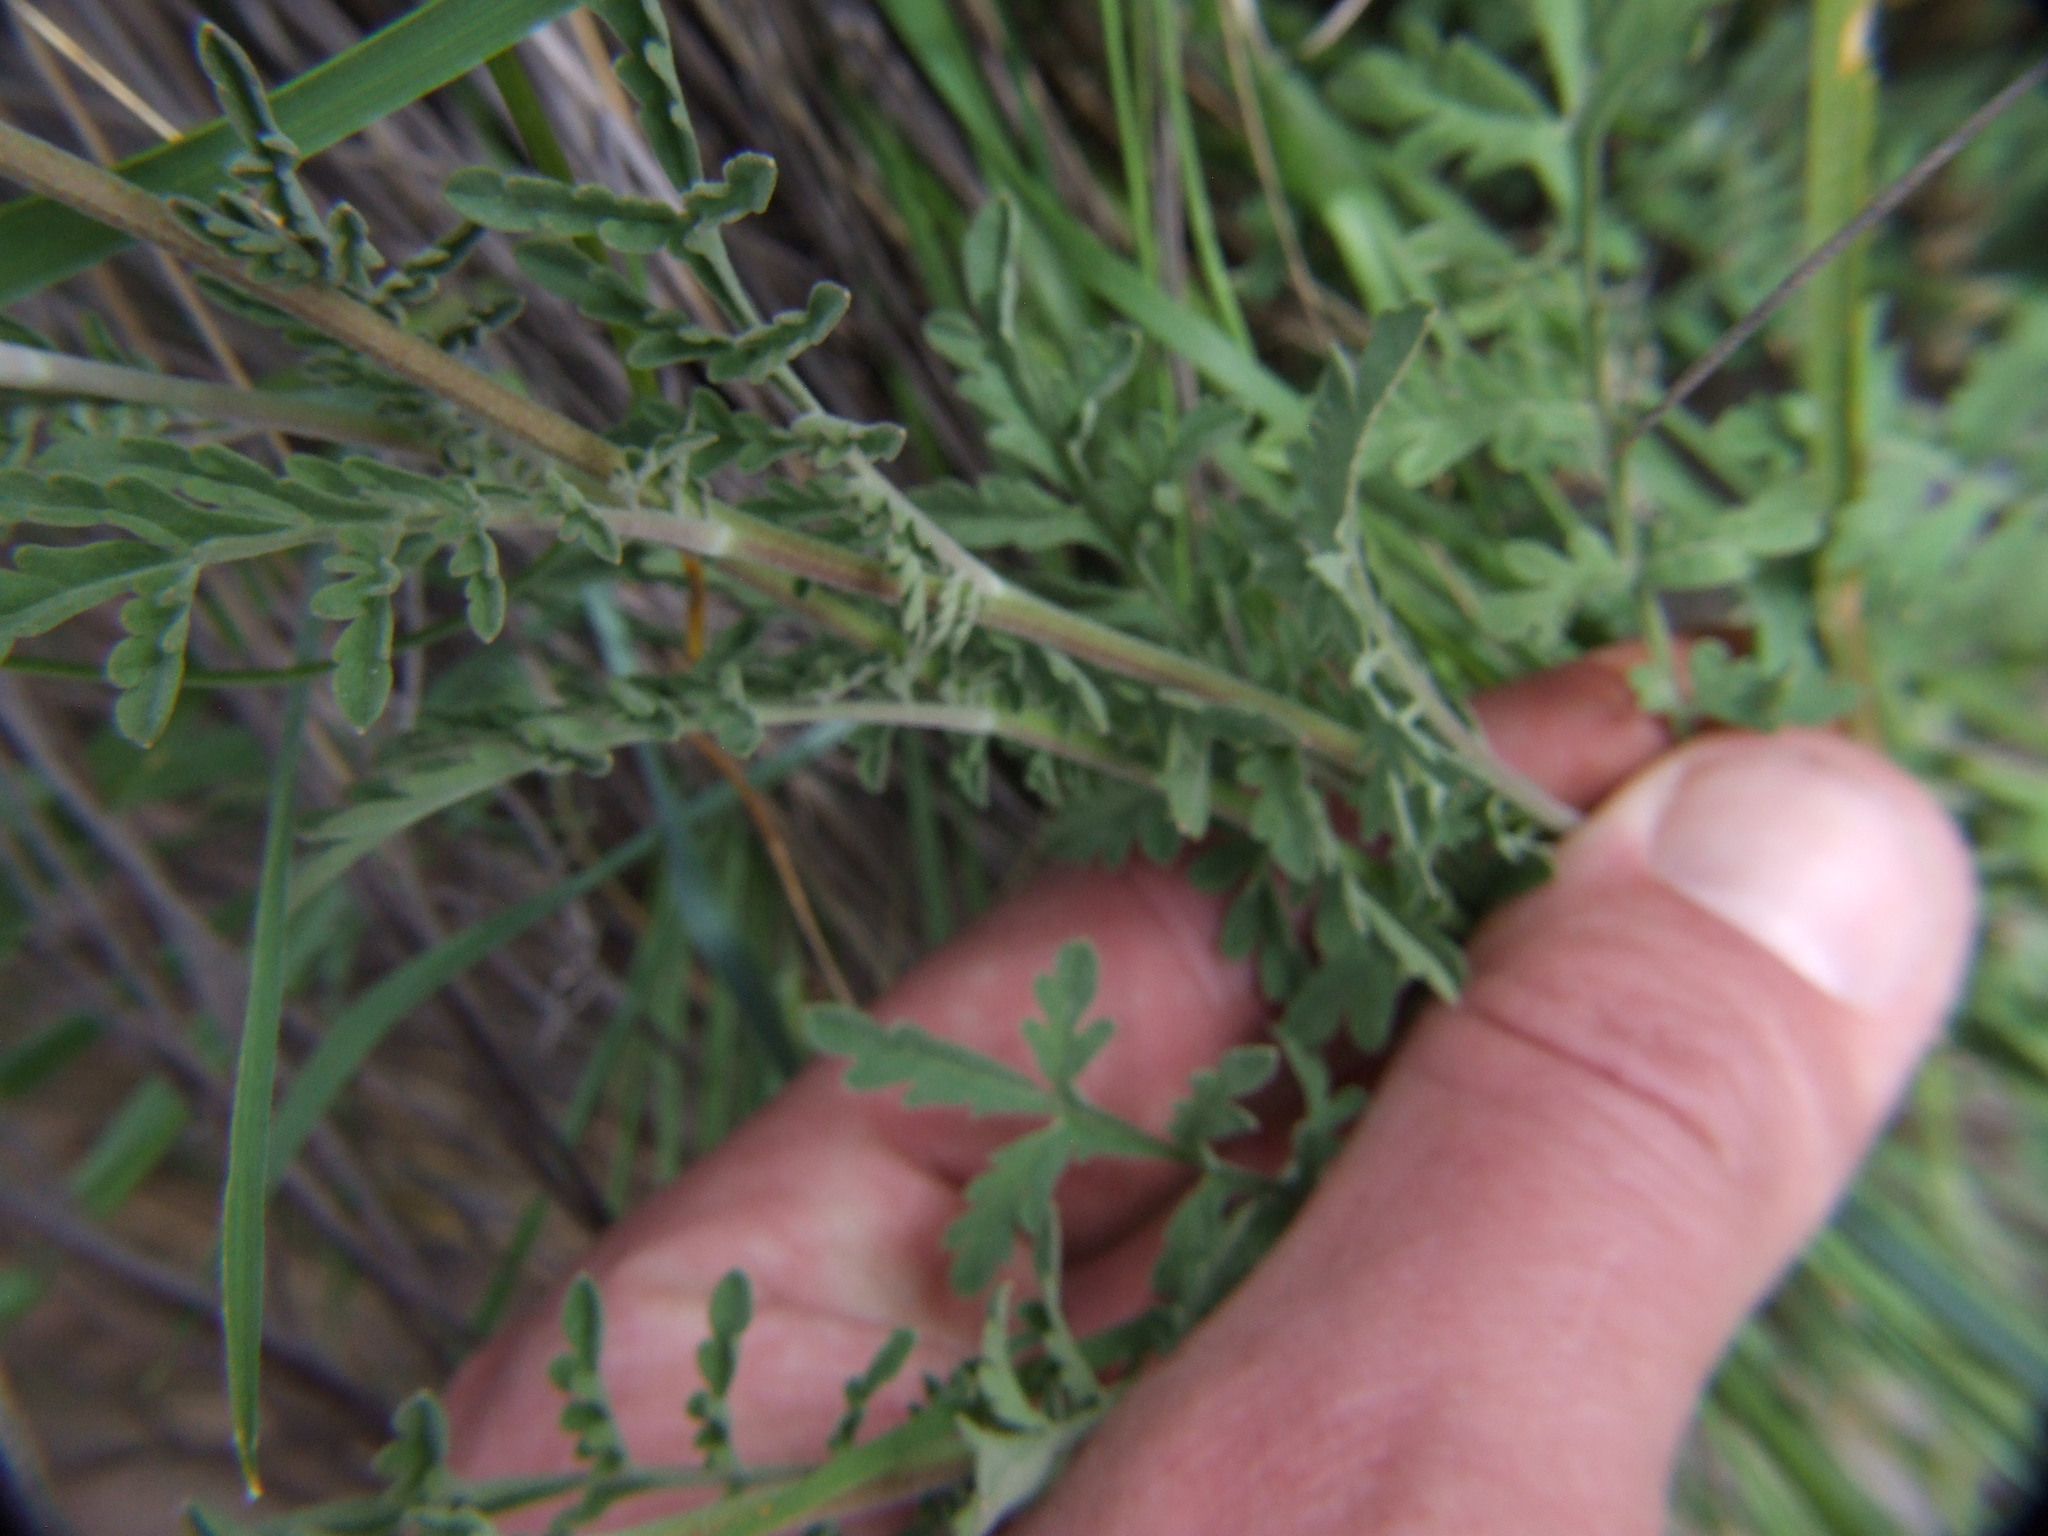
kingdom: Plantae
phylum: Tracheophyta
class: Magnoliopsida
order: Brassicales
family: Brassicaceae
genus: Descurainia
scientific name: Descurainia myriophylla
